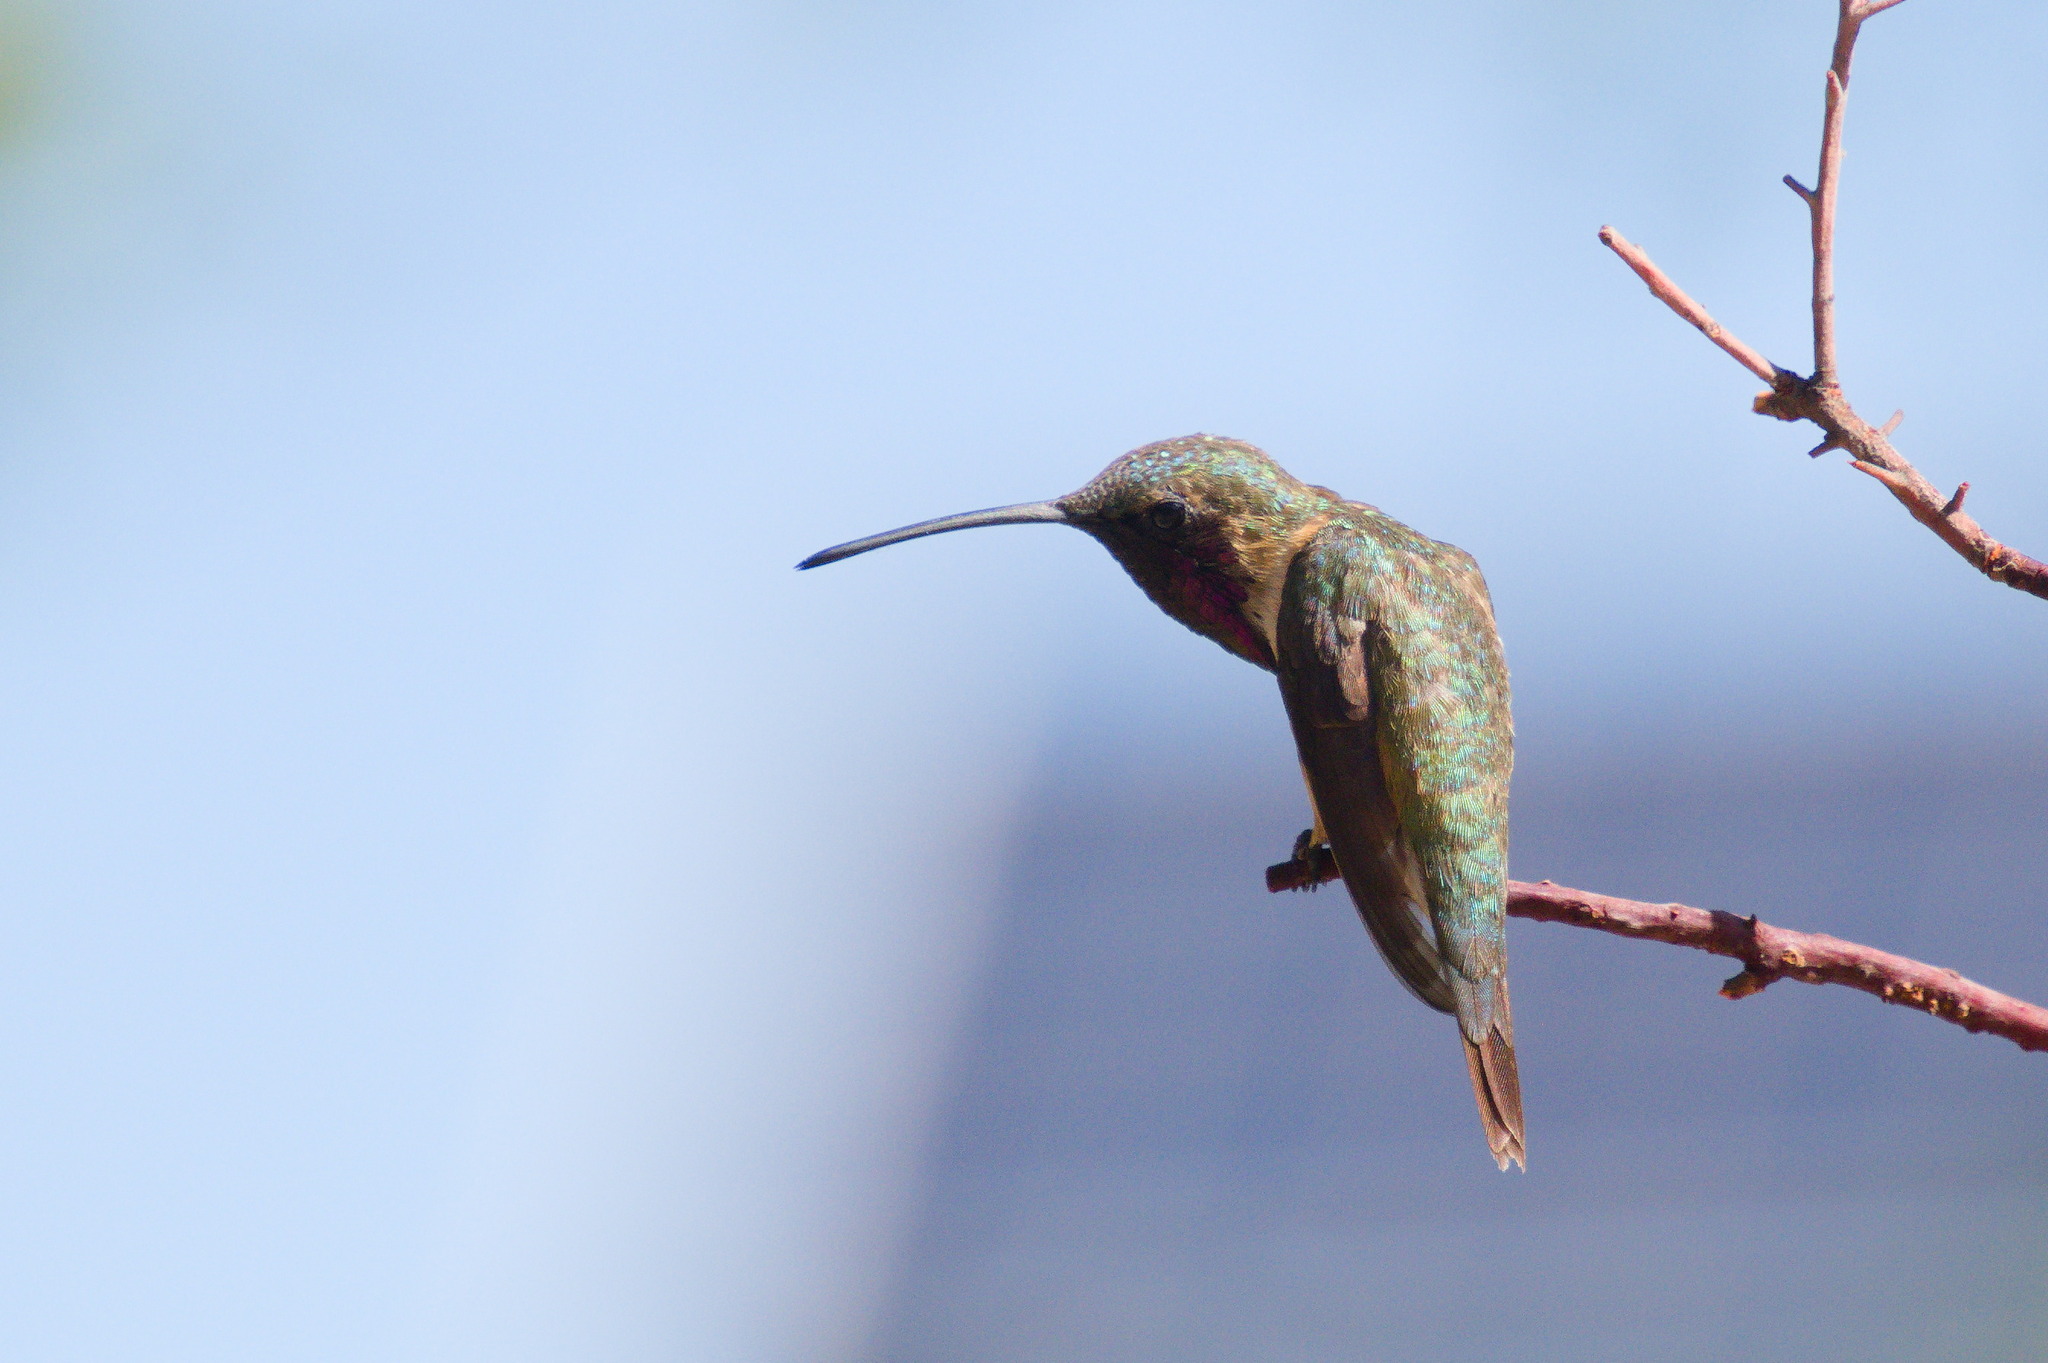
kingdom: Animalia
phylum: Chordata
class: Aves
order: Apodiformes
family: Trochilidae
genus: Calothorax
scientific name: Calothorax lucifer
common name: Lucifer sheartail
